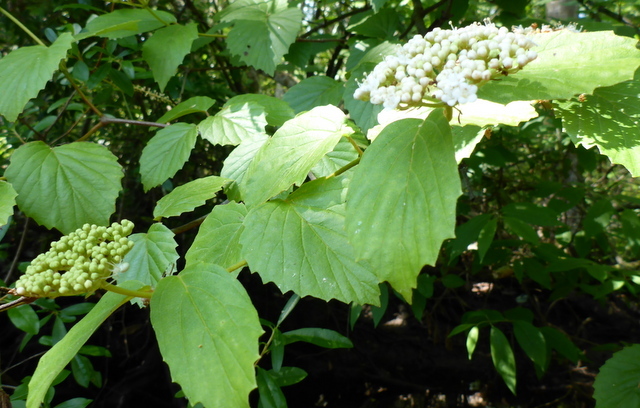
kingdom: Plantae
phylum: Tracheophyta
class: Magnoliopsida
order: Dipsacales
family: Viburnaceae
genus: Viburnum
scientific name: Viburnum scabrellum
